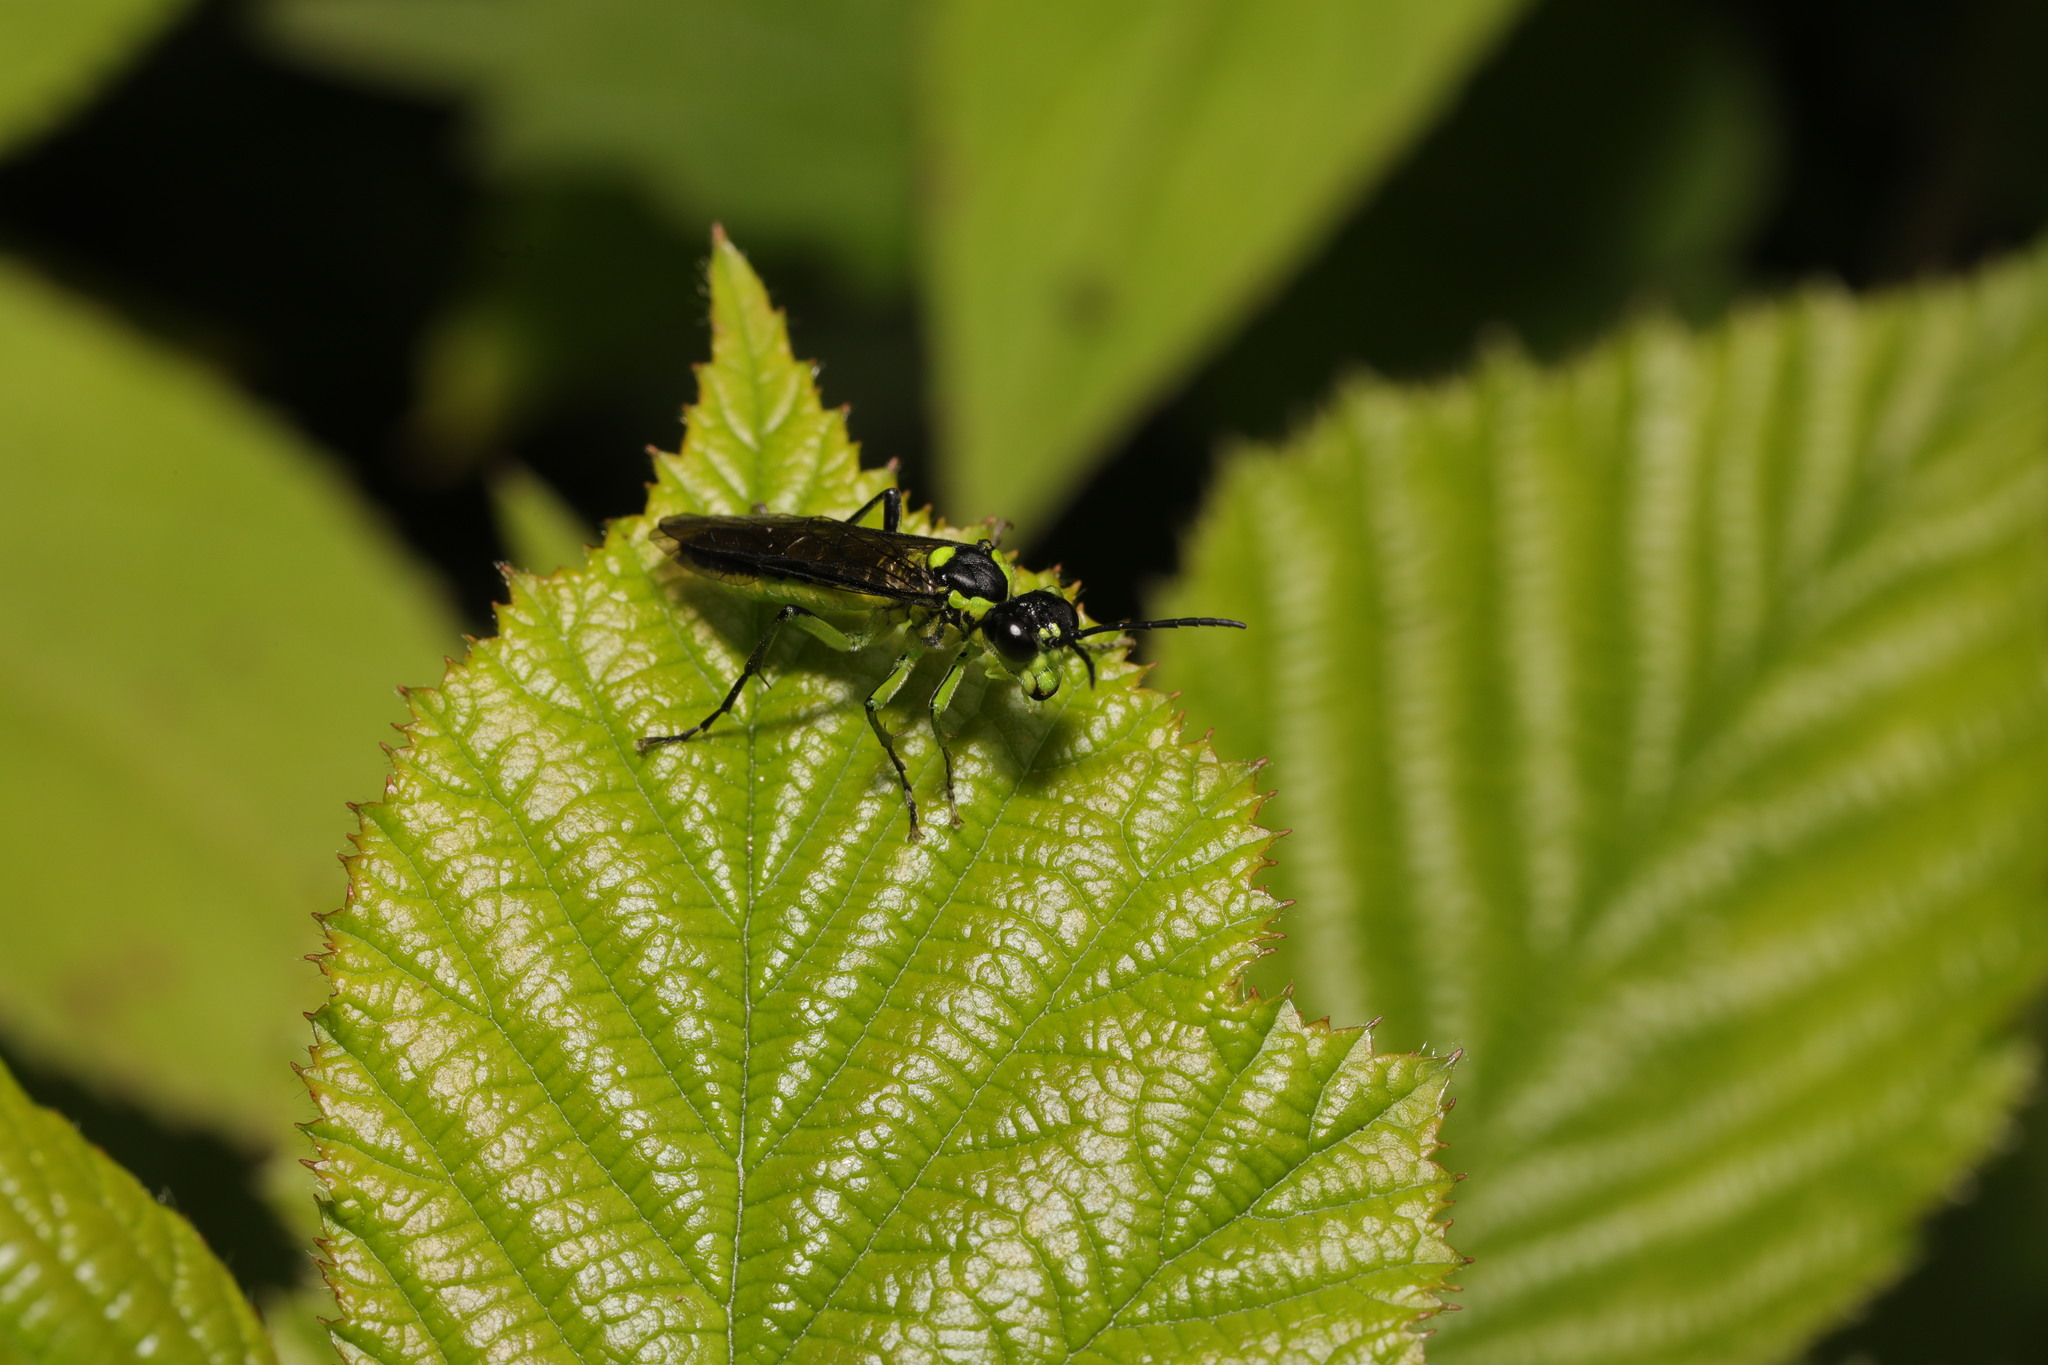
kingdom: Animalia
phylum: Arthropoda
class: Insecta
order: Hymenoptera
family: Tenthredinidae
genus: Tenthredo
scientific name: Tenthredo mesomela
